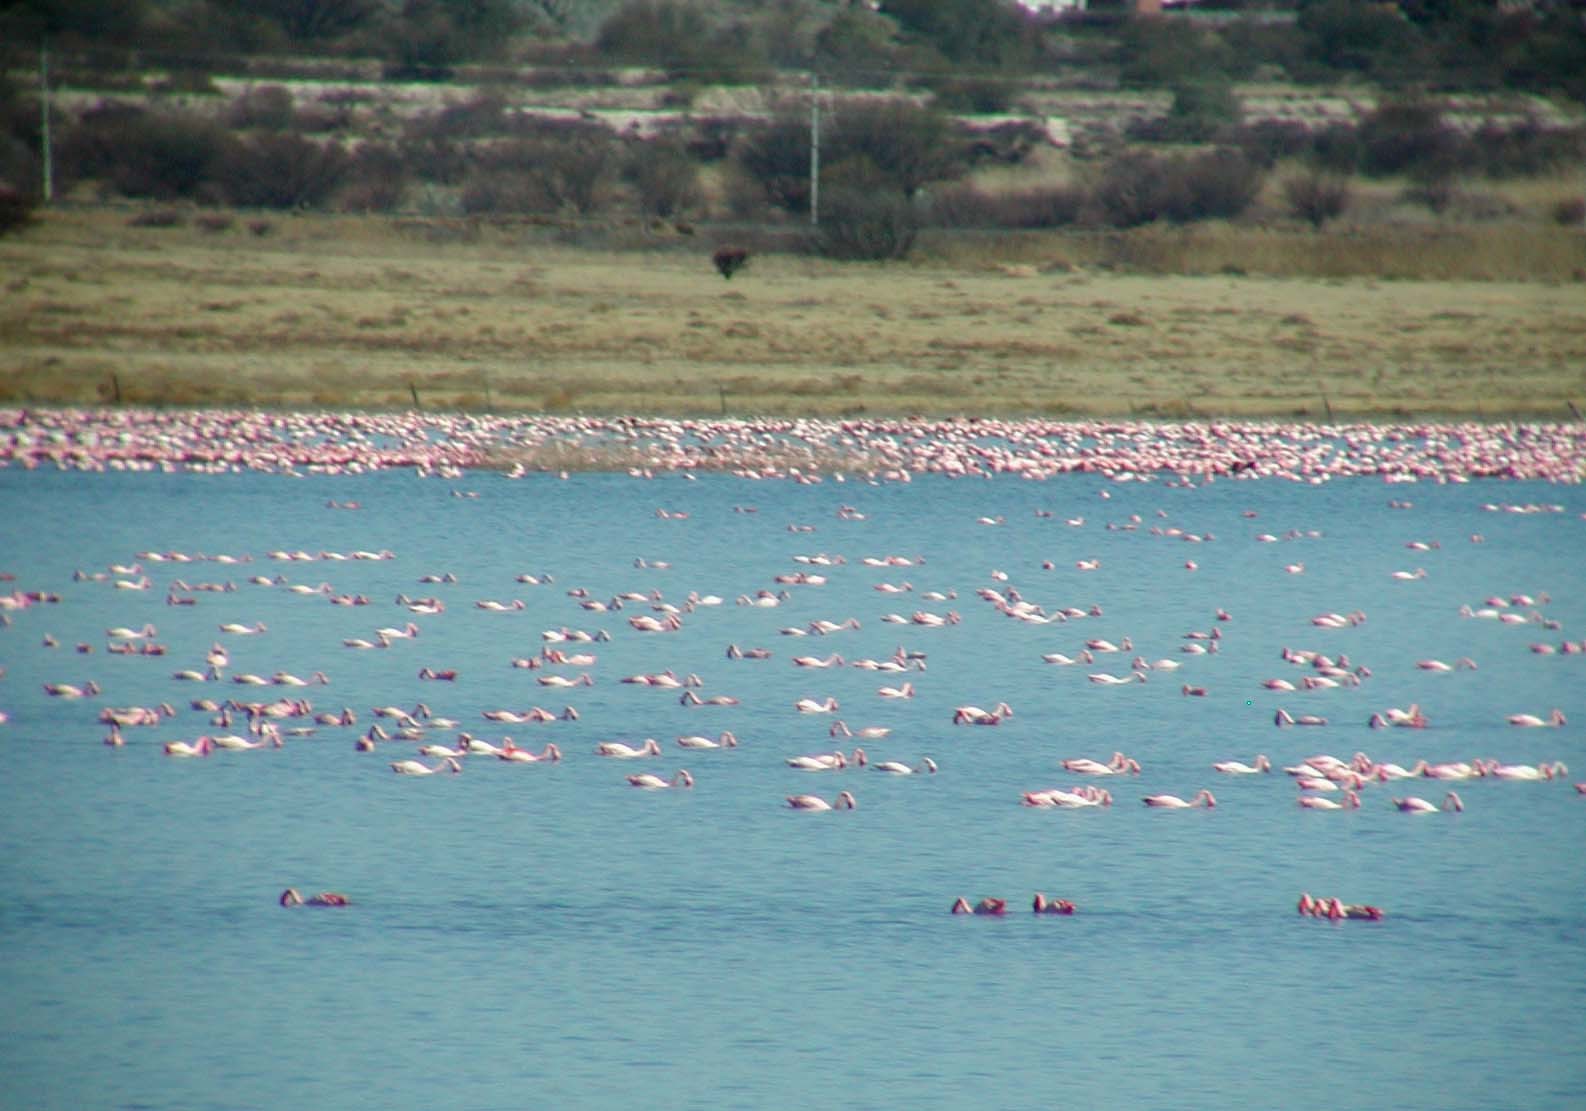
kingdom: Animalia
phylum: Chordata
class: Aves
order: Phoenicopteriformes
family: Phoenicopteridae
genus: Phoeniconaias
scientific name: Phoeniconaias minor
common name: Lesser flamingo
